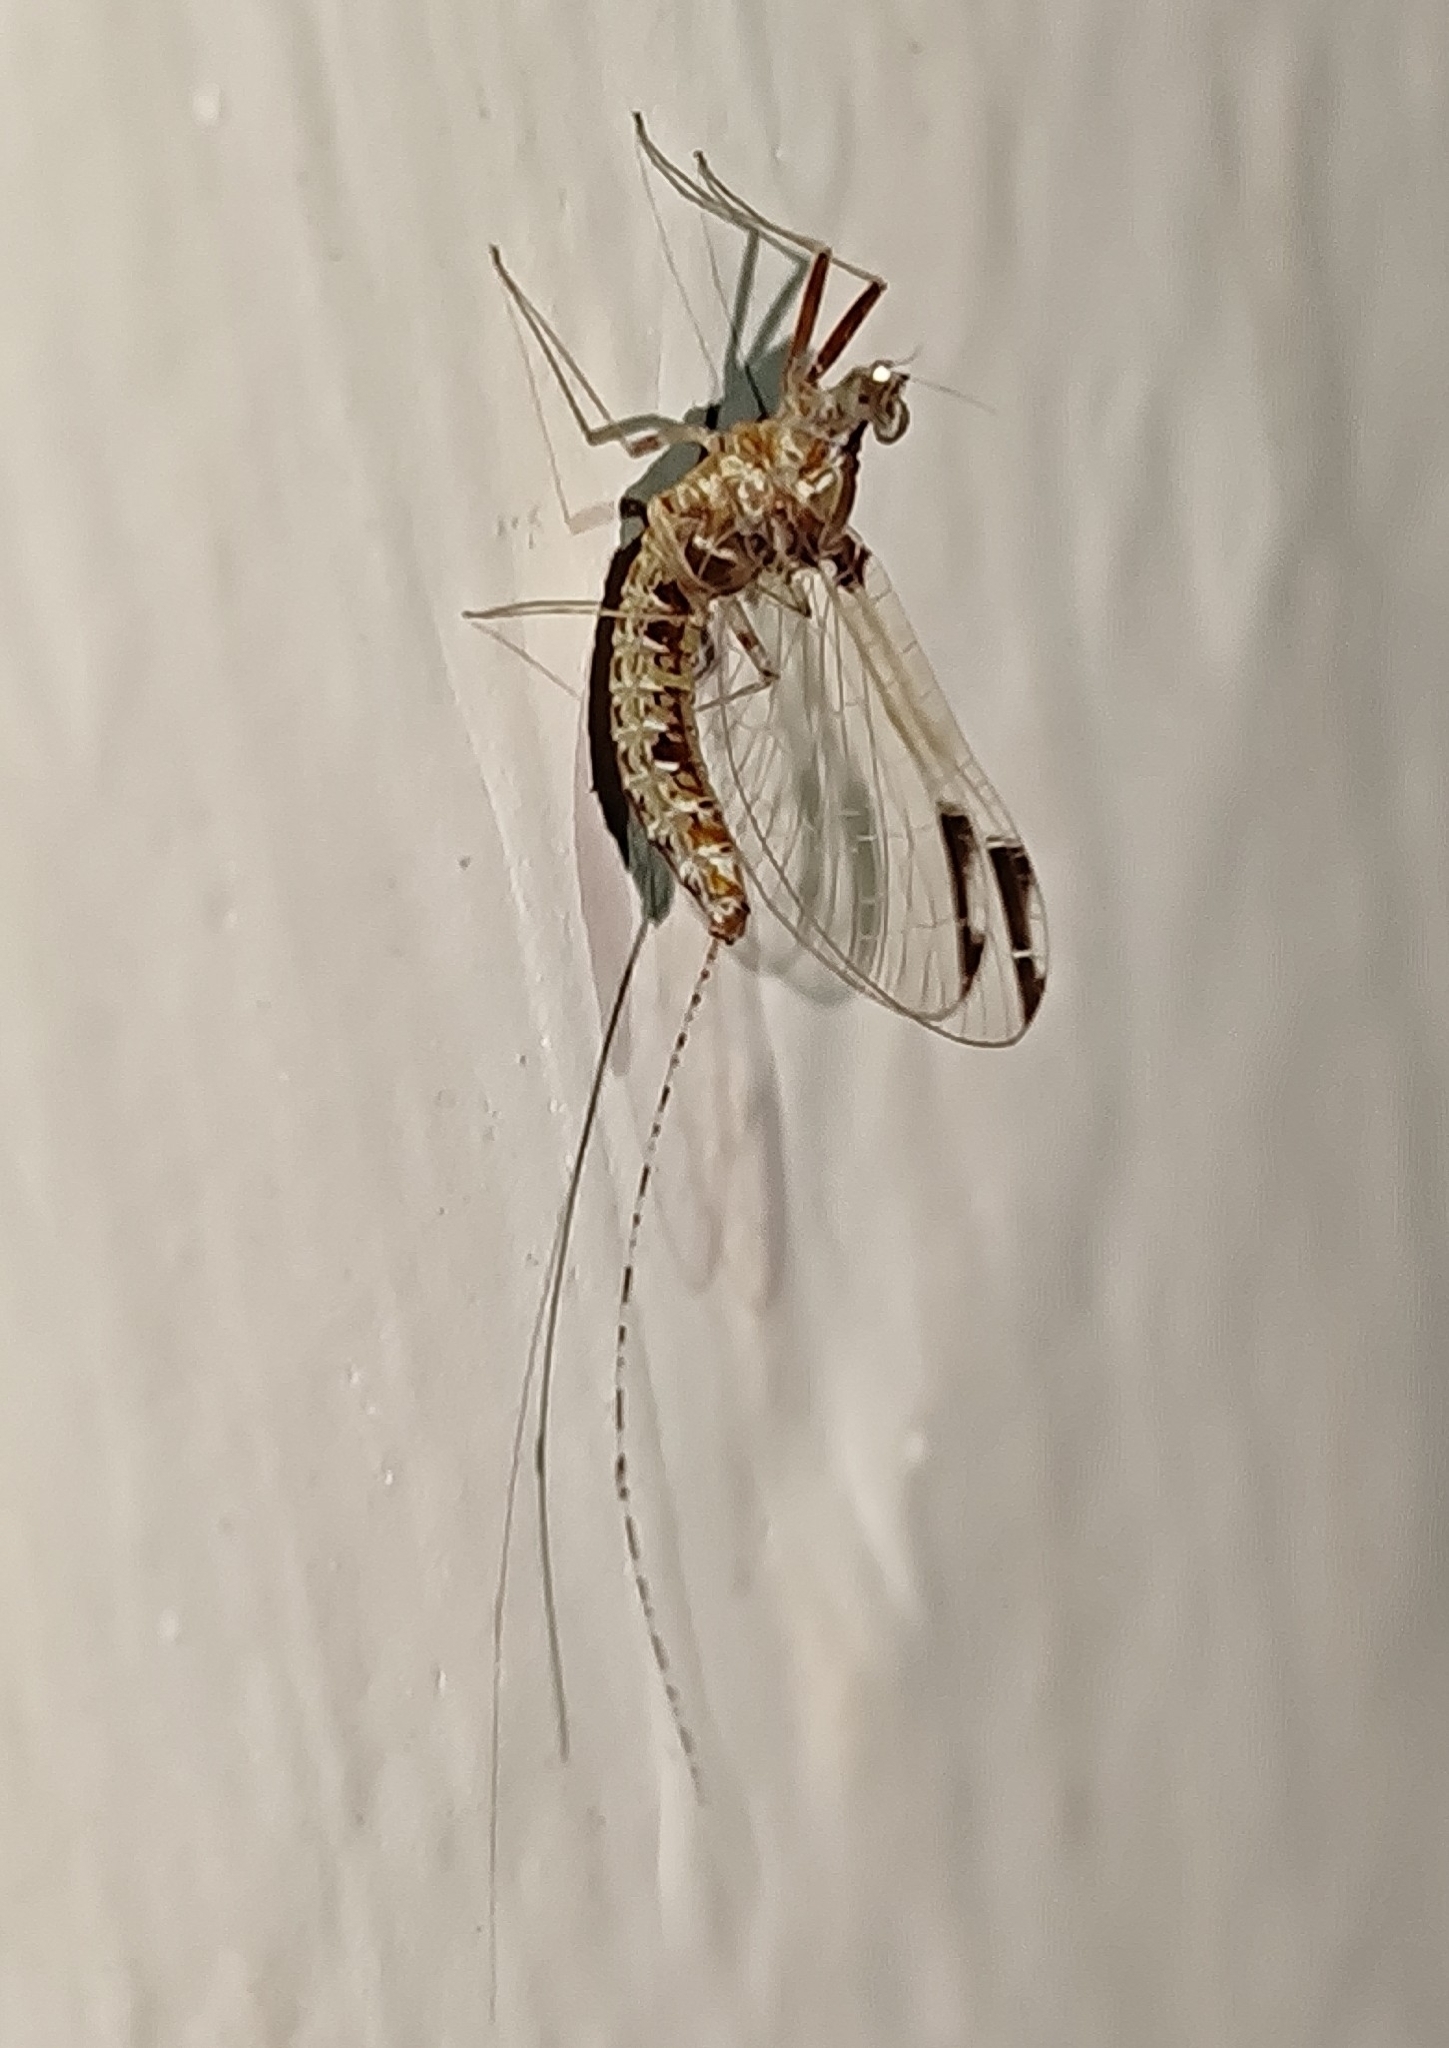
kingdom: Animalia
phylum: Arthropoda
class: Insecta
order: Ephemeroptera
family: Baetidae
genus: Cloeon
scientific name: Cloeon harveyi
